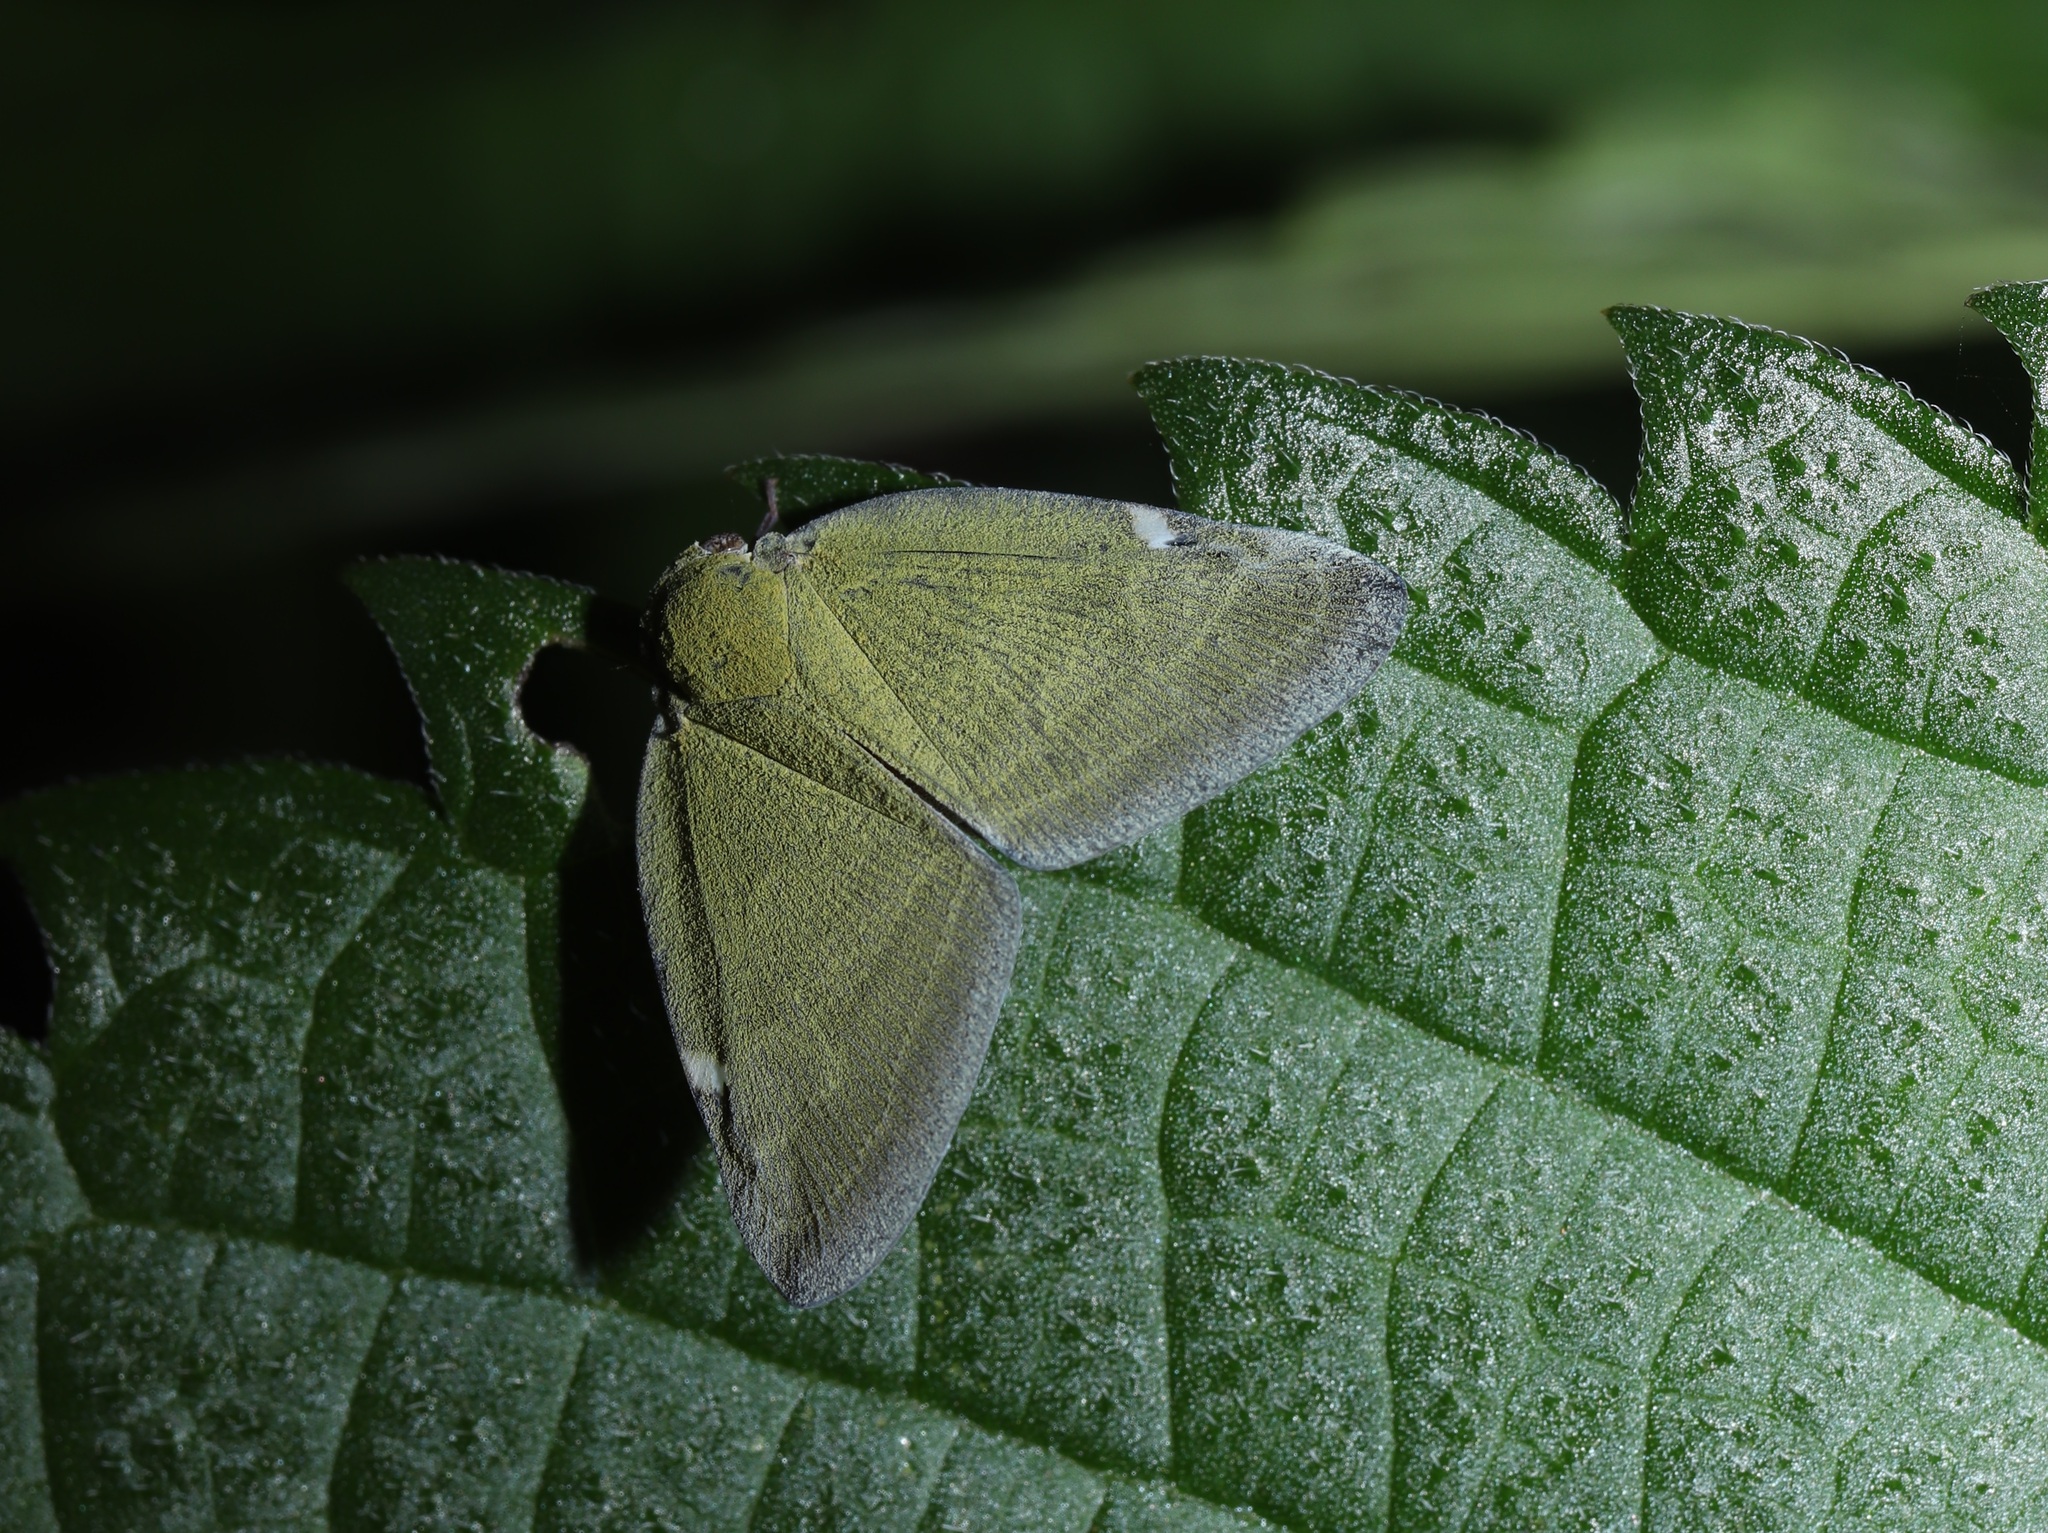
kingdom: Animalia
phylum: Arthropoda
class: Insecta
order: Hemiptera
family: Ricaniidae
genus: Pochazia
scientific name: Pochazia albomaculata
